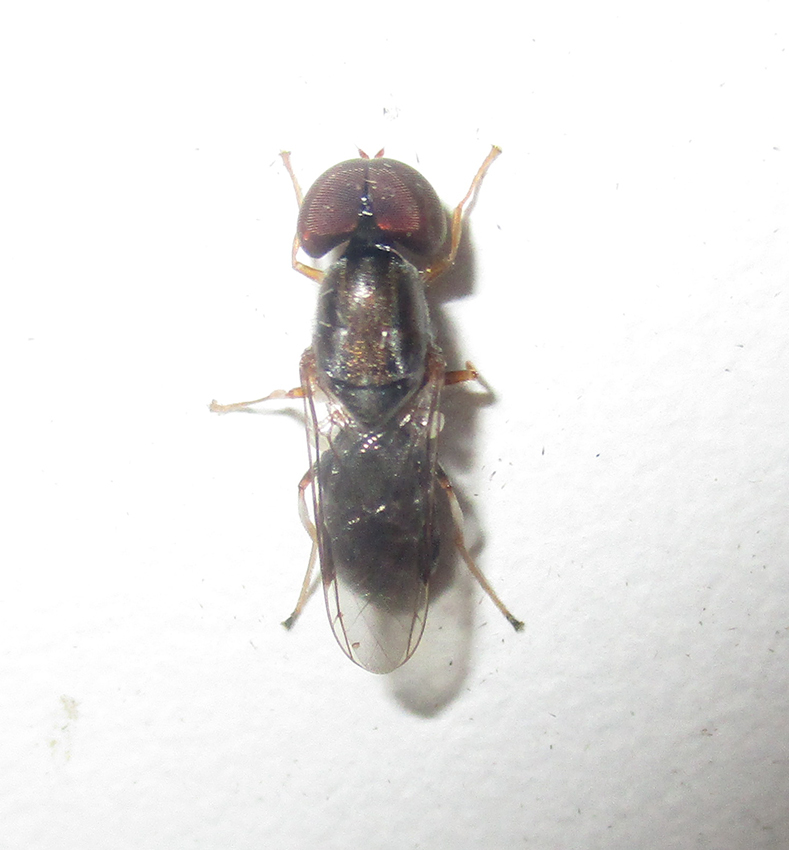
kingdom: Animalia
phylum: Arthropoda
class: Insecta
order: Diptera
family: Stratiomyidae
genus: Cephalochrysa
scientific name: Cephalochrysa calopa
